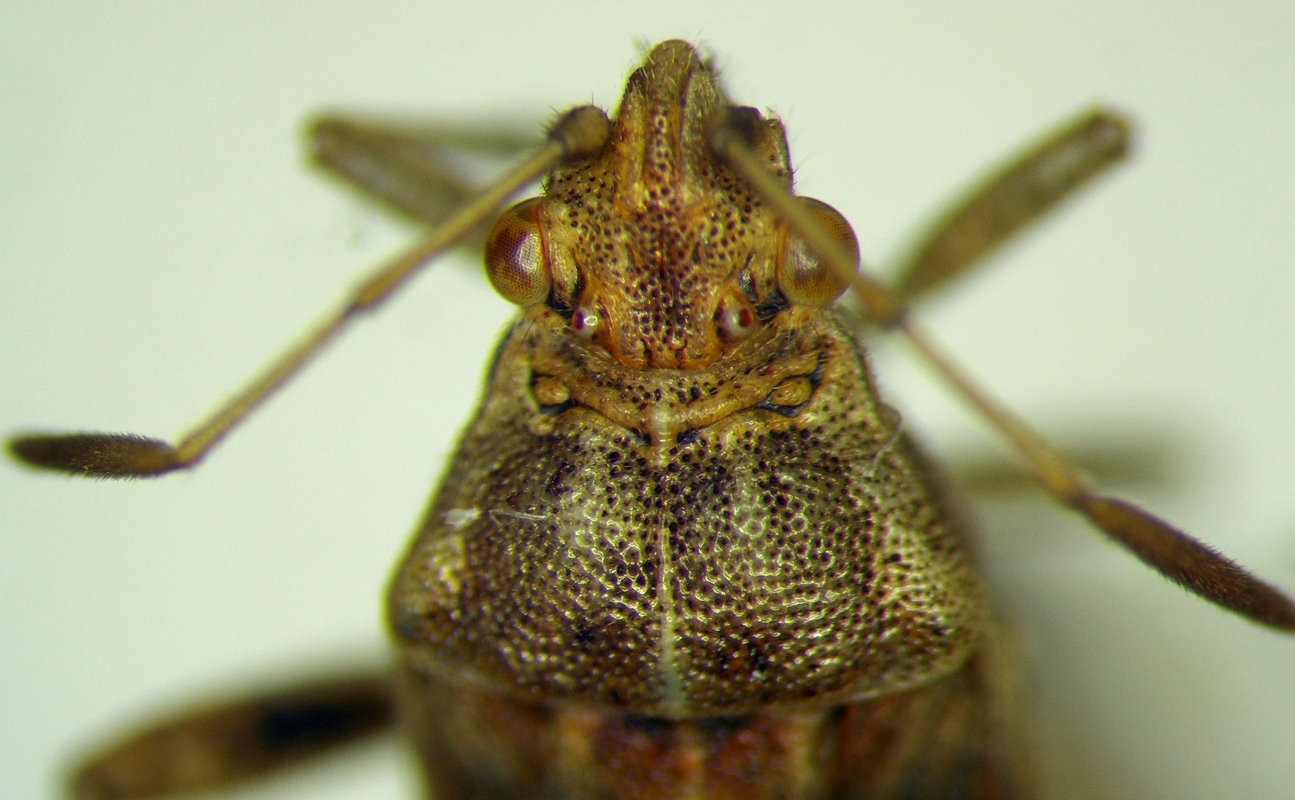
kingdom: Animalia
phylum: Arthropoda
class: Insecta
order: Hemiptera
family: Rhopalidae
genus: Stictopleurus
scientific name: Stictopleurus abutilon
